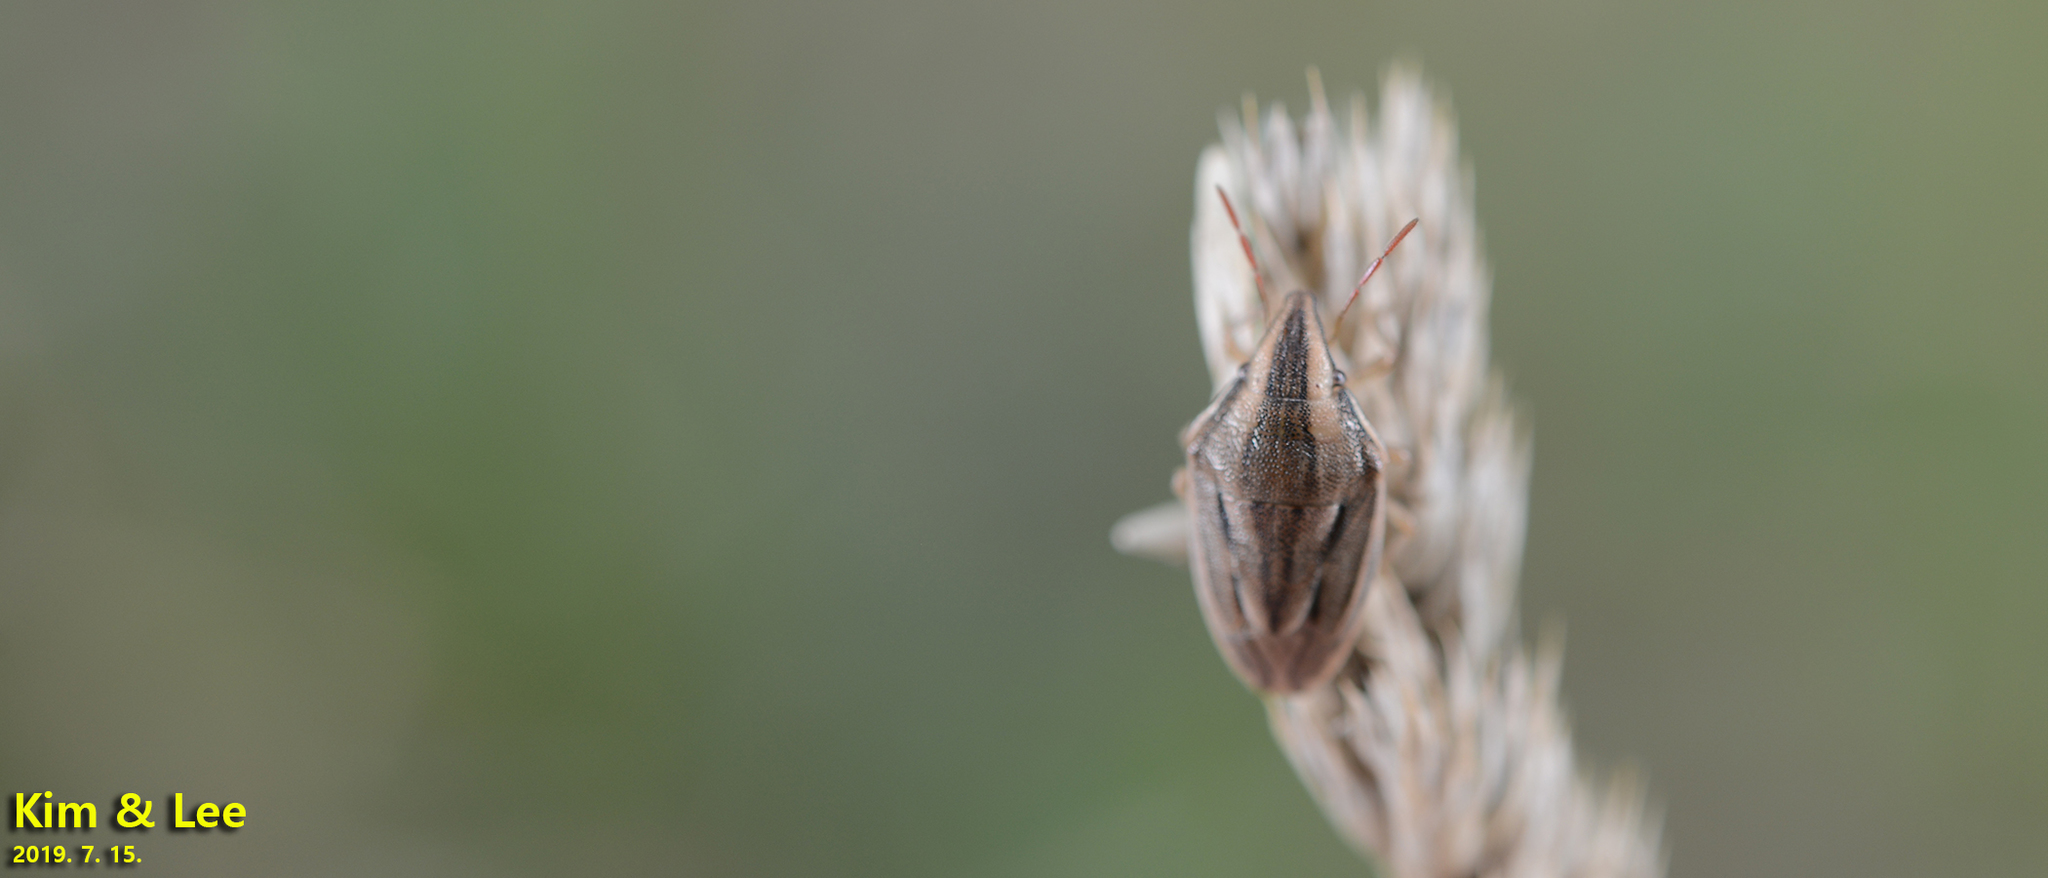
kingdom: Animalia
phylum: Arthropoda
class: Insecta
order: Hemiptera
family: Pentatomidae
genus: Aelia
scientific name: Aelia
